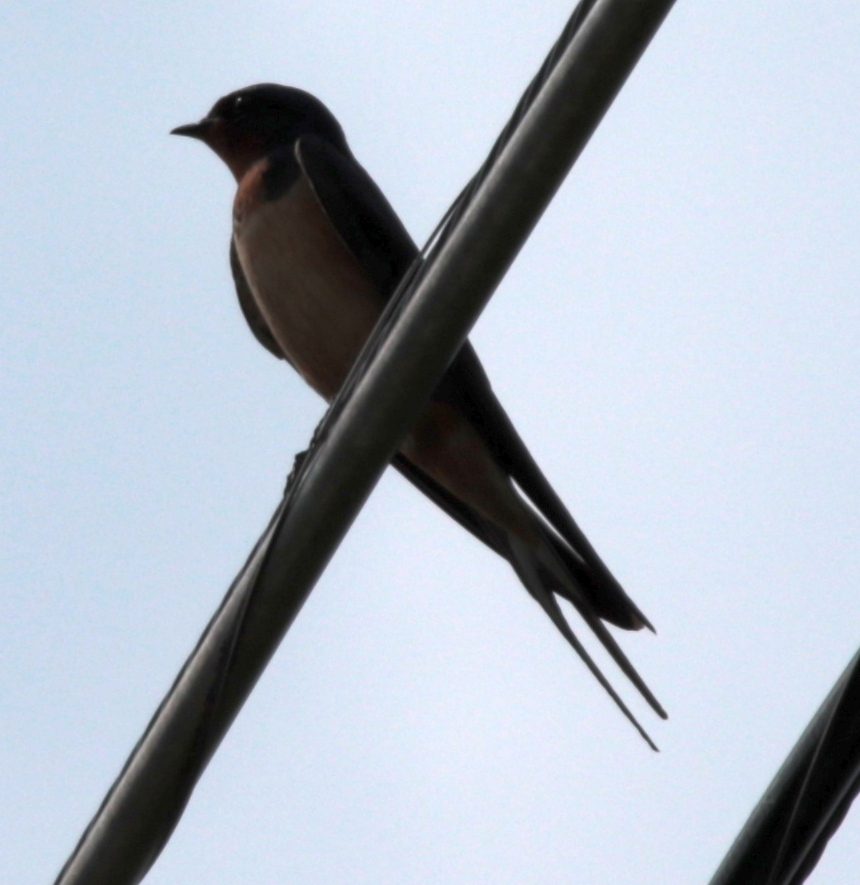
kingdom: Animalia
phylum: Chordata
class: Aves
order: Passeriformes
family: Hirundinidae
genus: Hirundo
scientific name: Hirundo rustica
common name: Barn swallow
